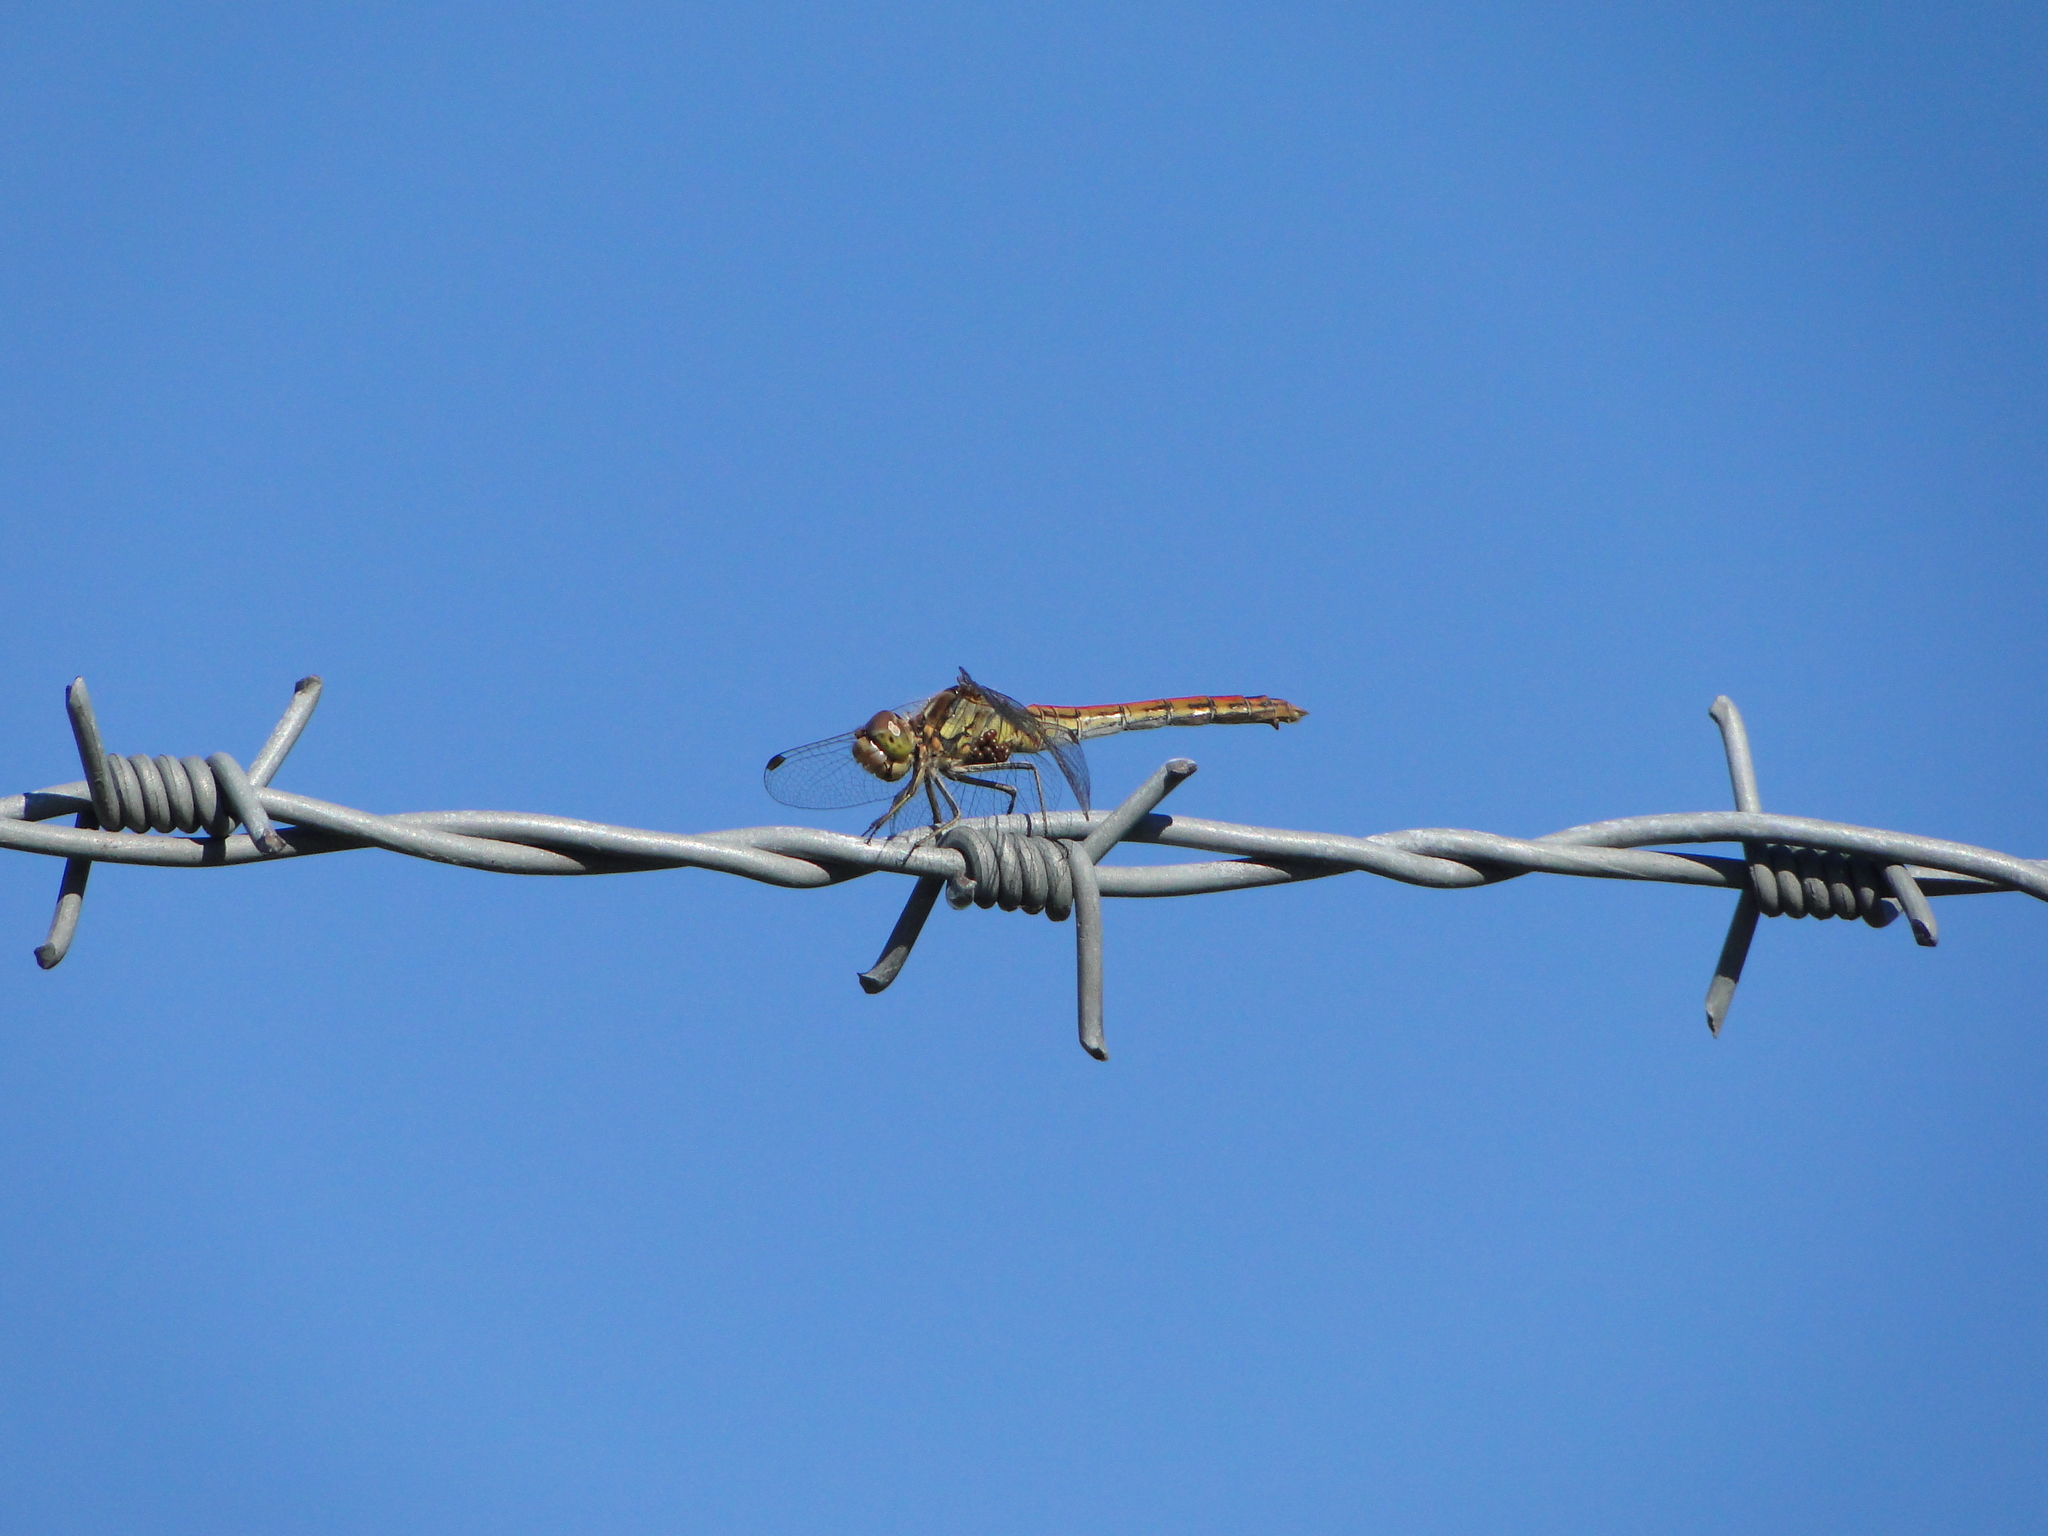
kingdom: Animalia
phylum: Arthropoda
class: Insecta
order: Odonata
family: Libellulidae
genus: Sympetrum
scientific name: Sympetrum vulgatum
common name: Vagrant darter
